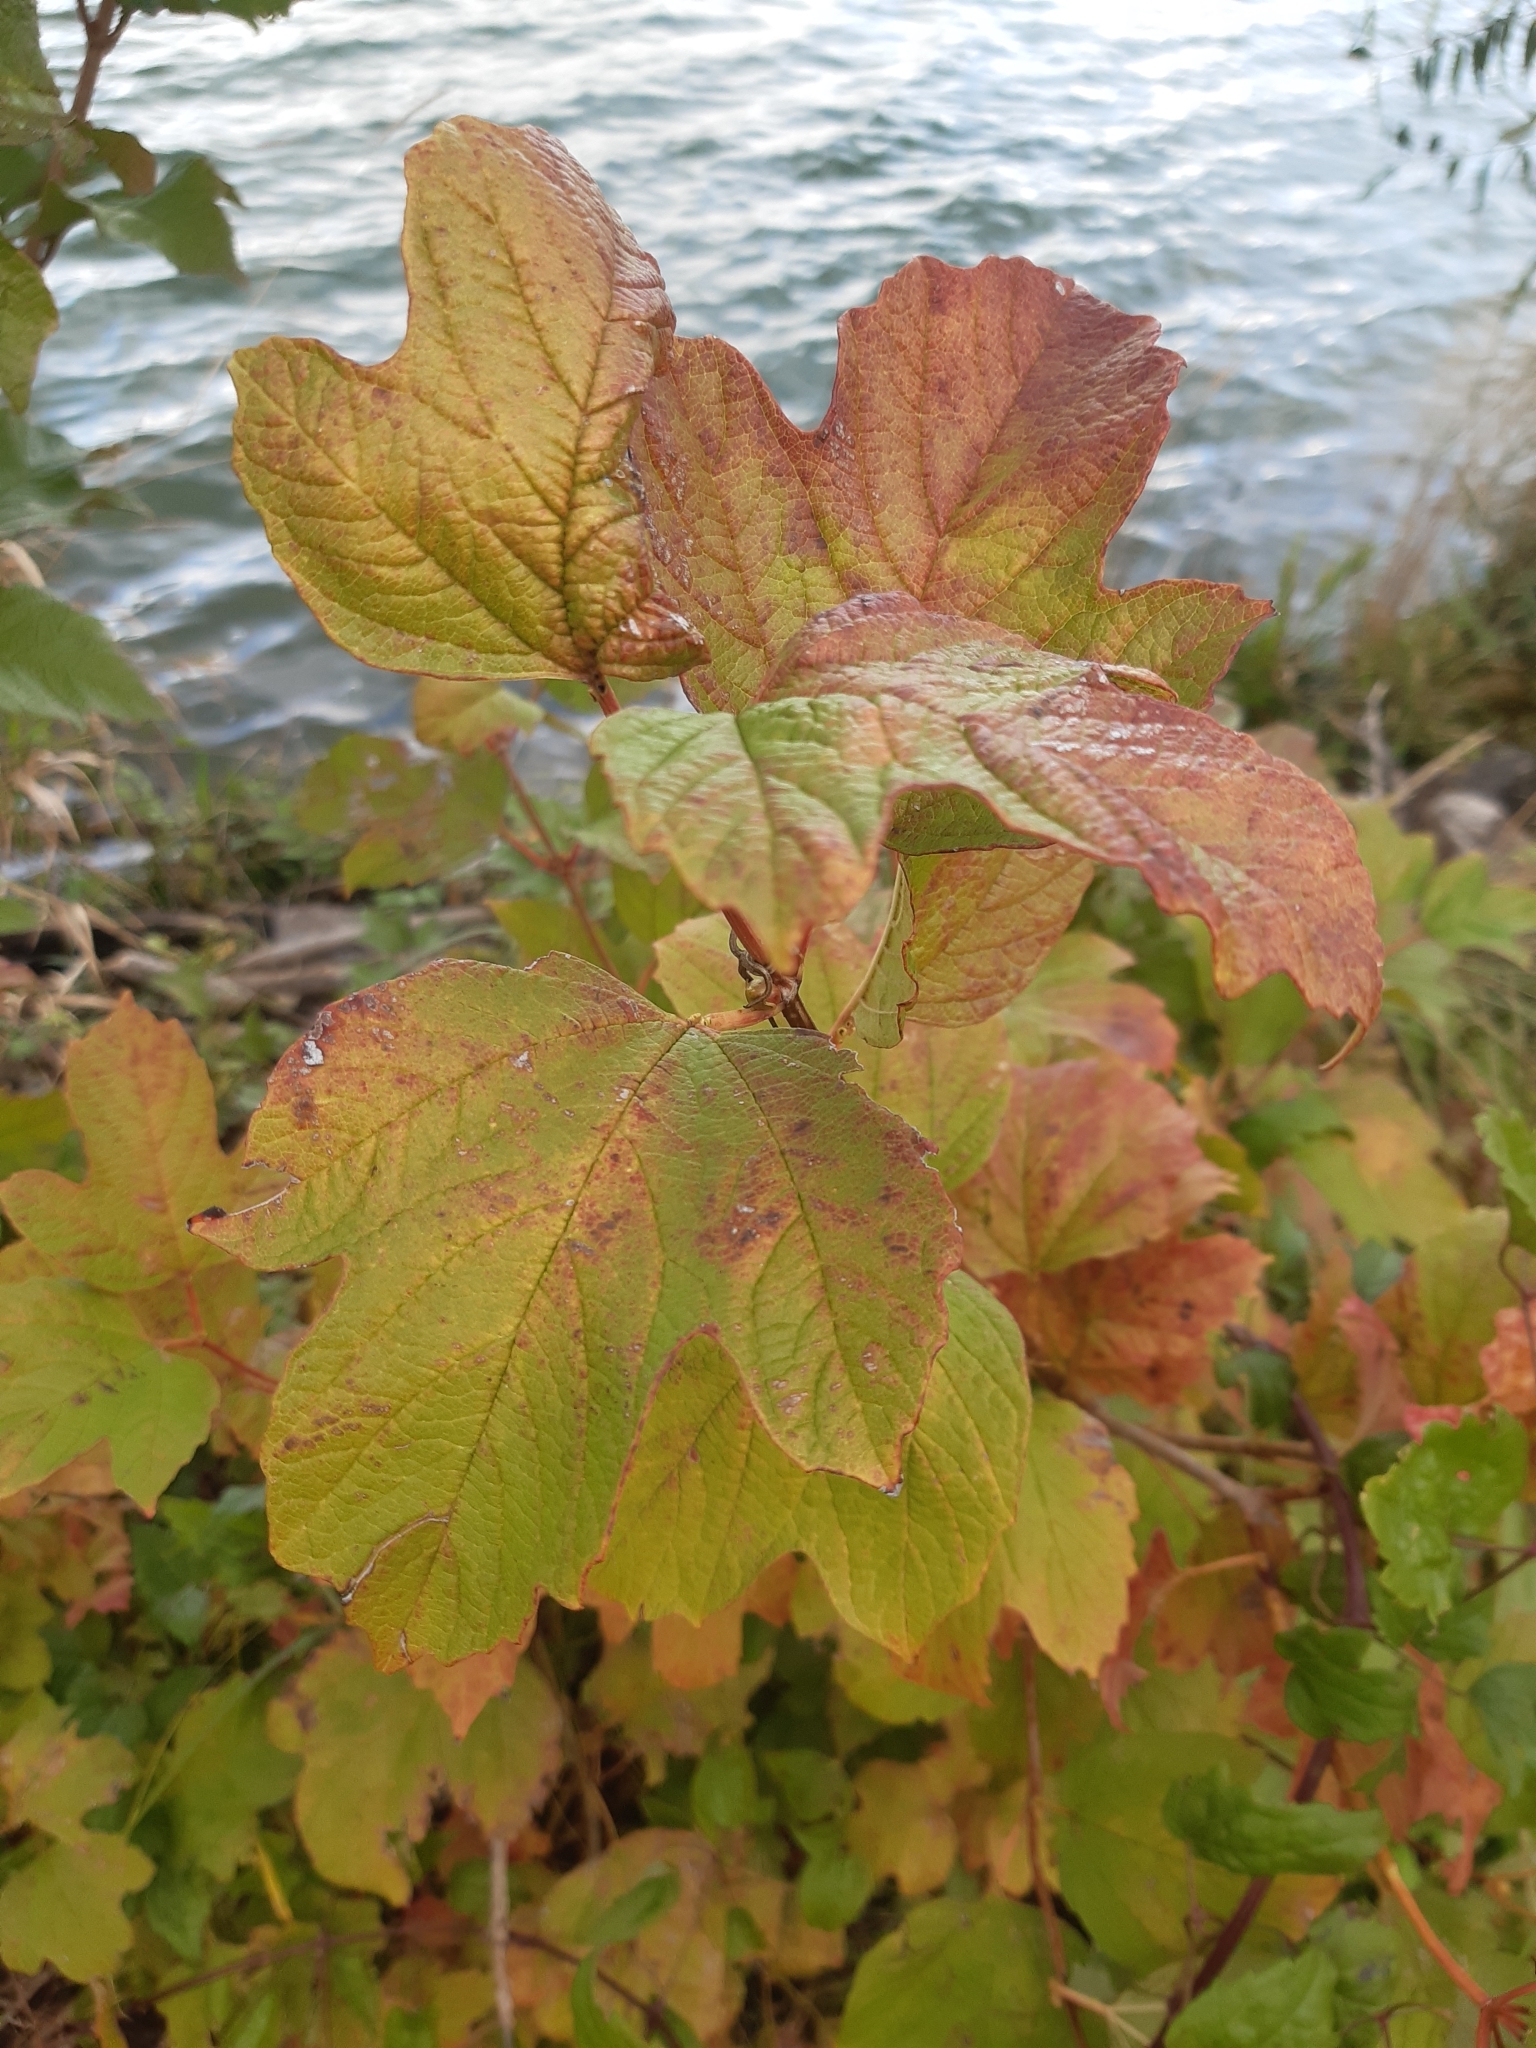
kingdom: Plantae
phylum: Tracheophyta
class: Magnoliopsida
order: Dipsacales
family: Viburnaceae
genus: Viburnum
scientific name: Viburnum opulus
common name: Guelder-rose
